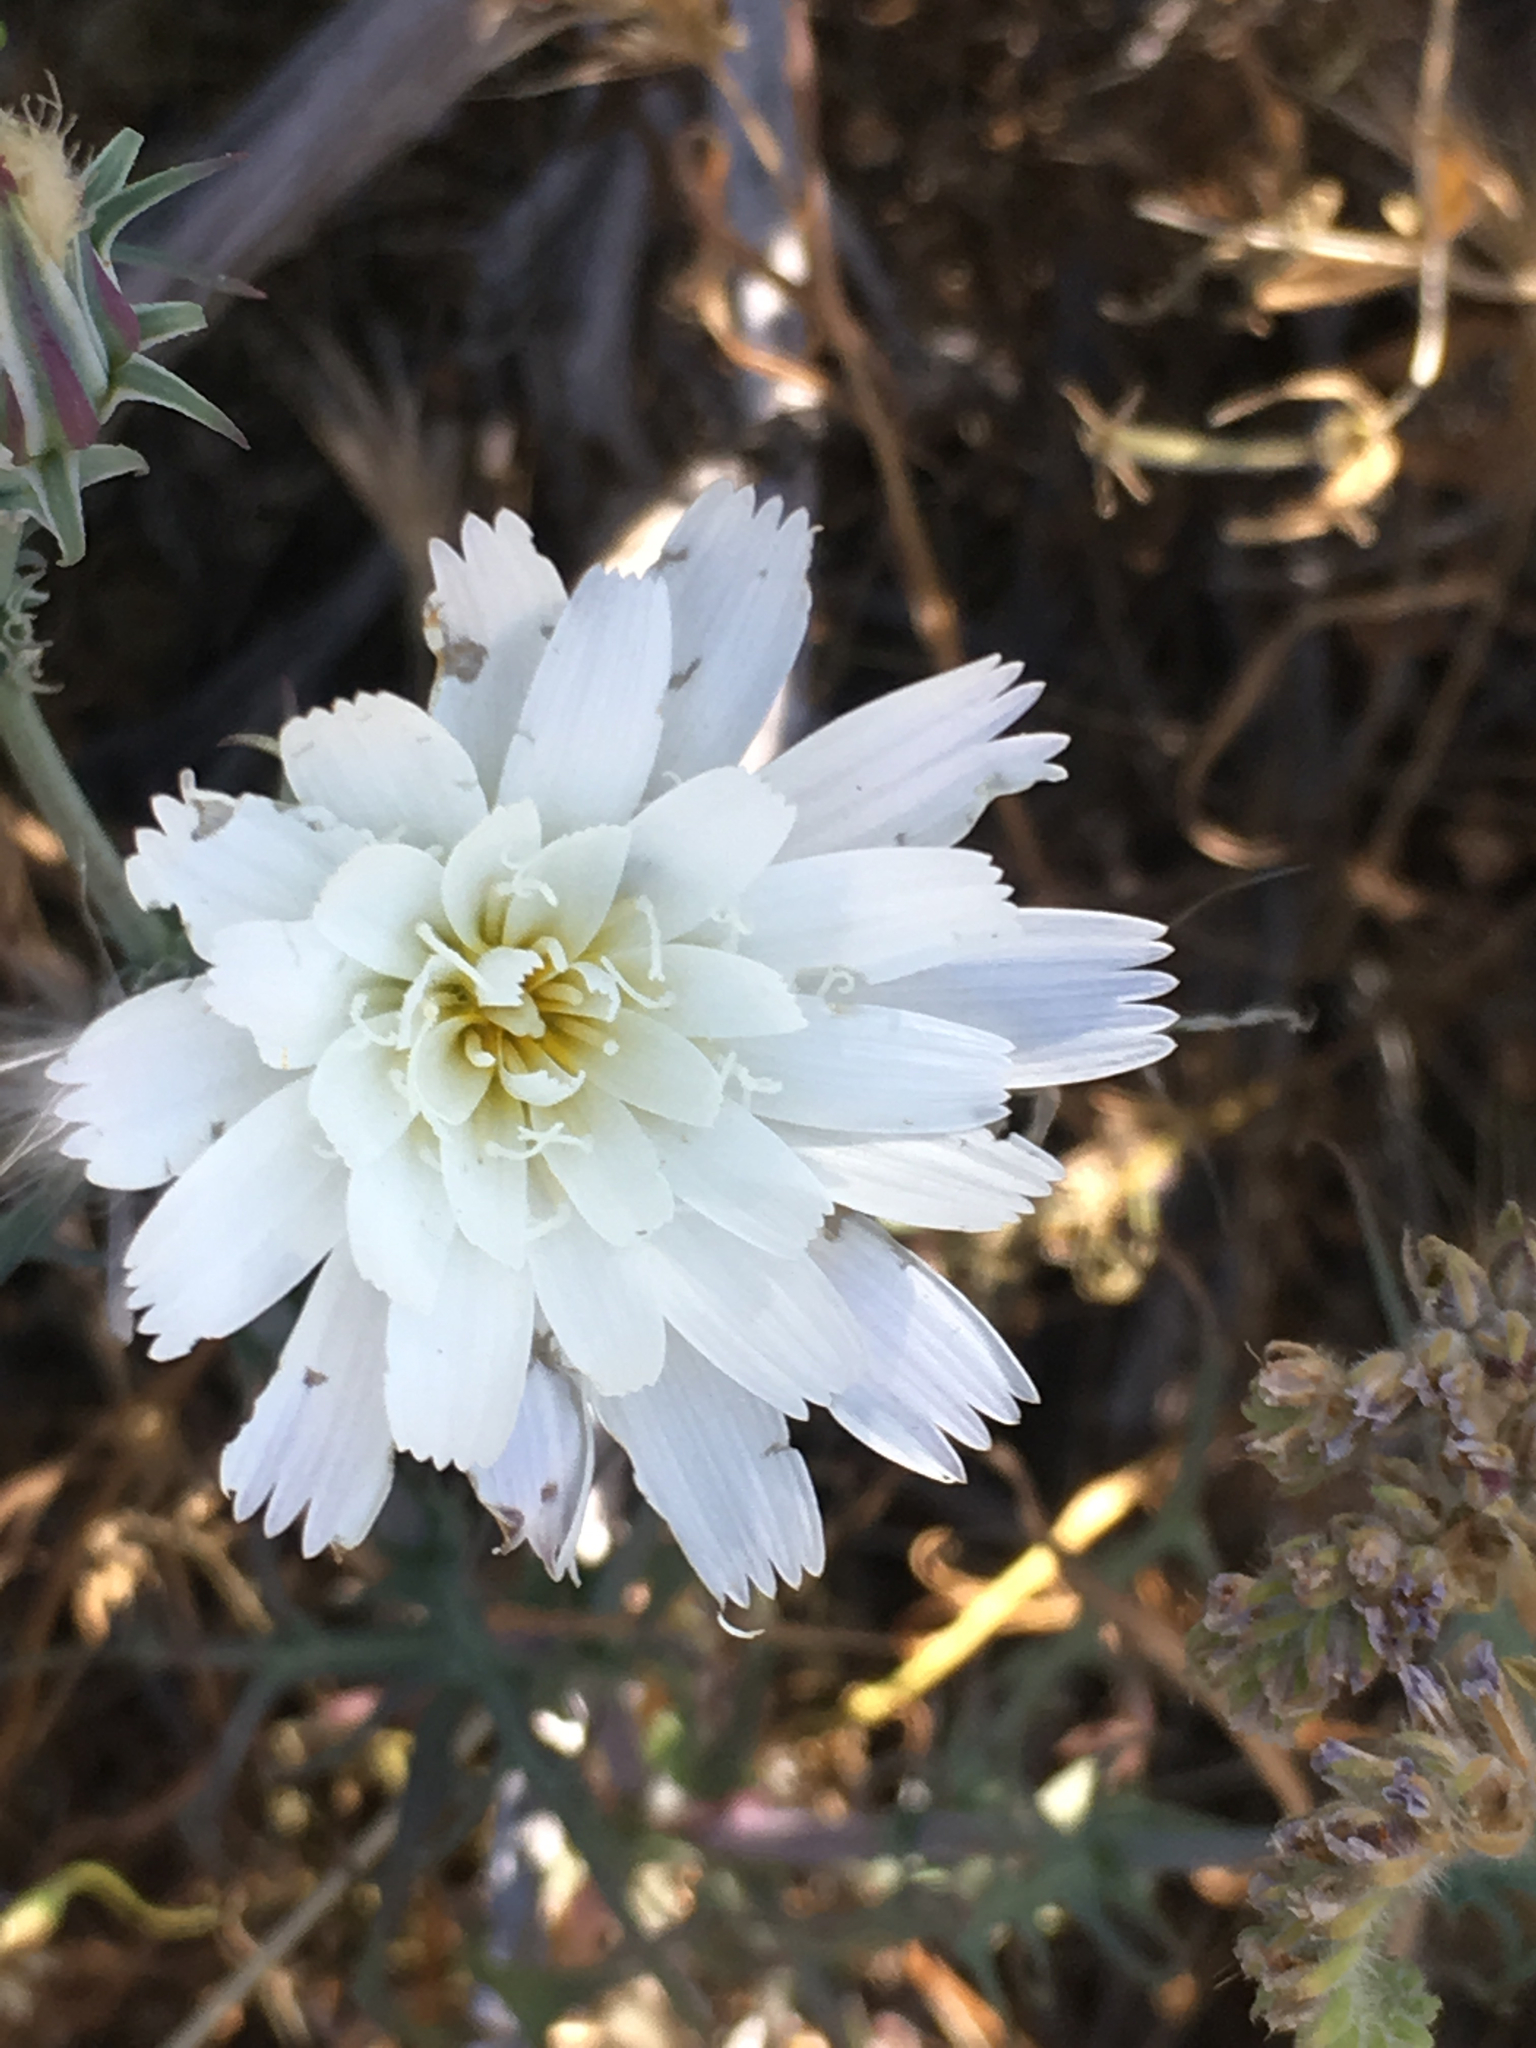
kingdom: Plantae
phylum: Tracheophyta
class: Magnoliopsida
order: Asterales
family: Asteraceae
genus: Rafinesquia
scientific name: Rafinesquia neomexicana
